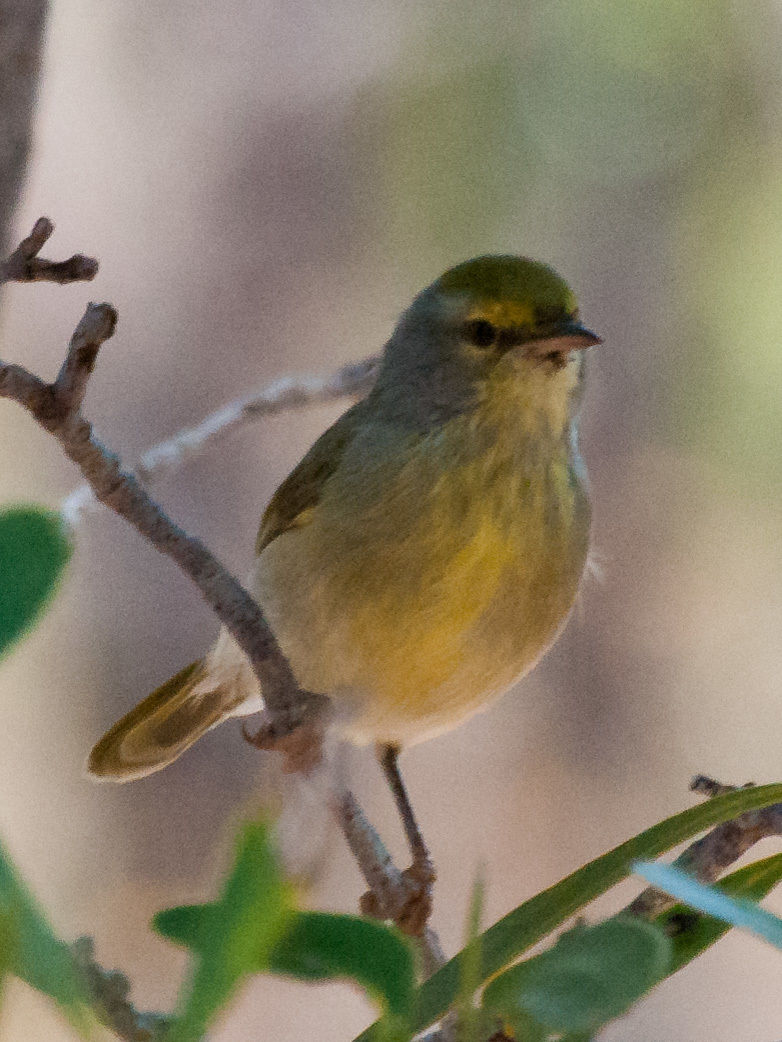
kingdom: Animalia
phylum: Chordata
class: Aves
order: Passeriformes
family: Cisticolidae
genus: Neomixis
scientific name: Neomixis striatigula
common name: Stripe-throated jery
